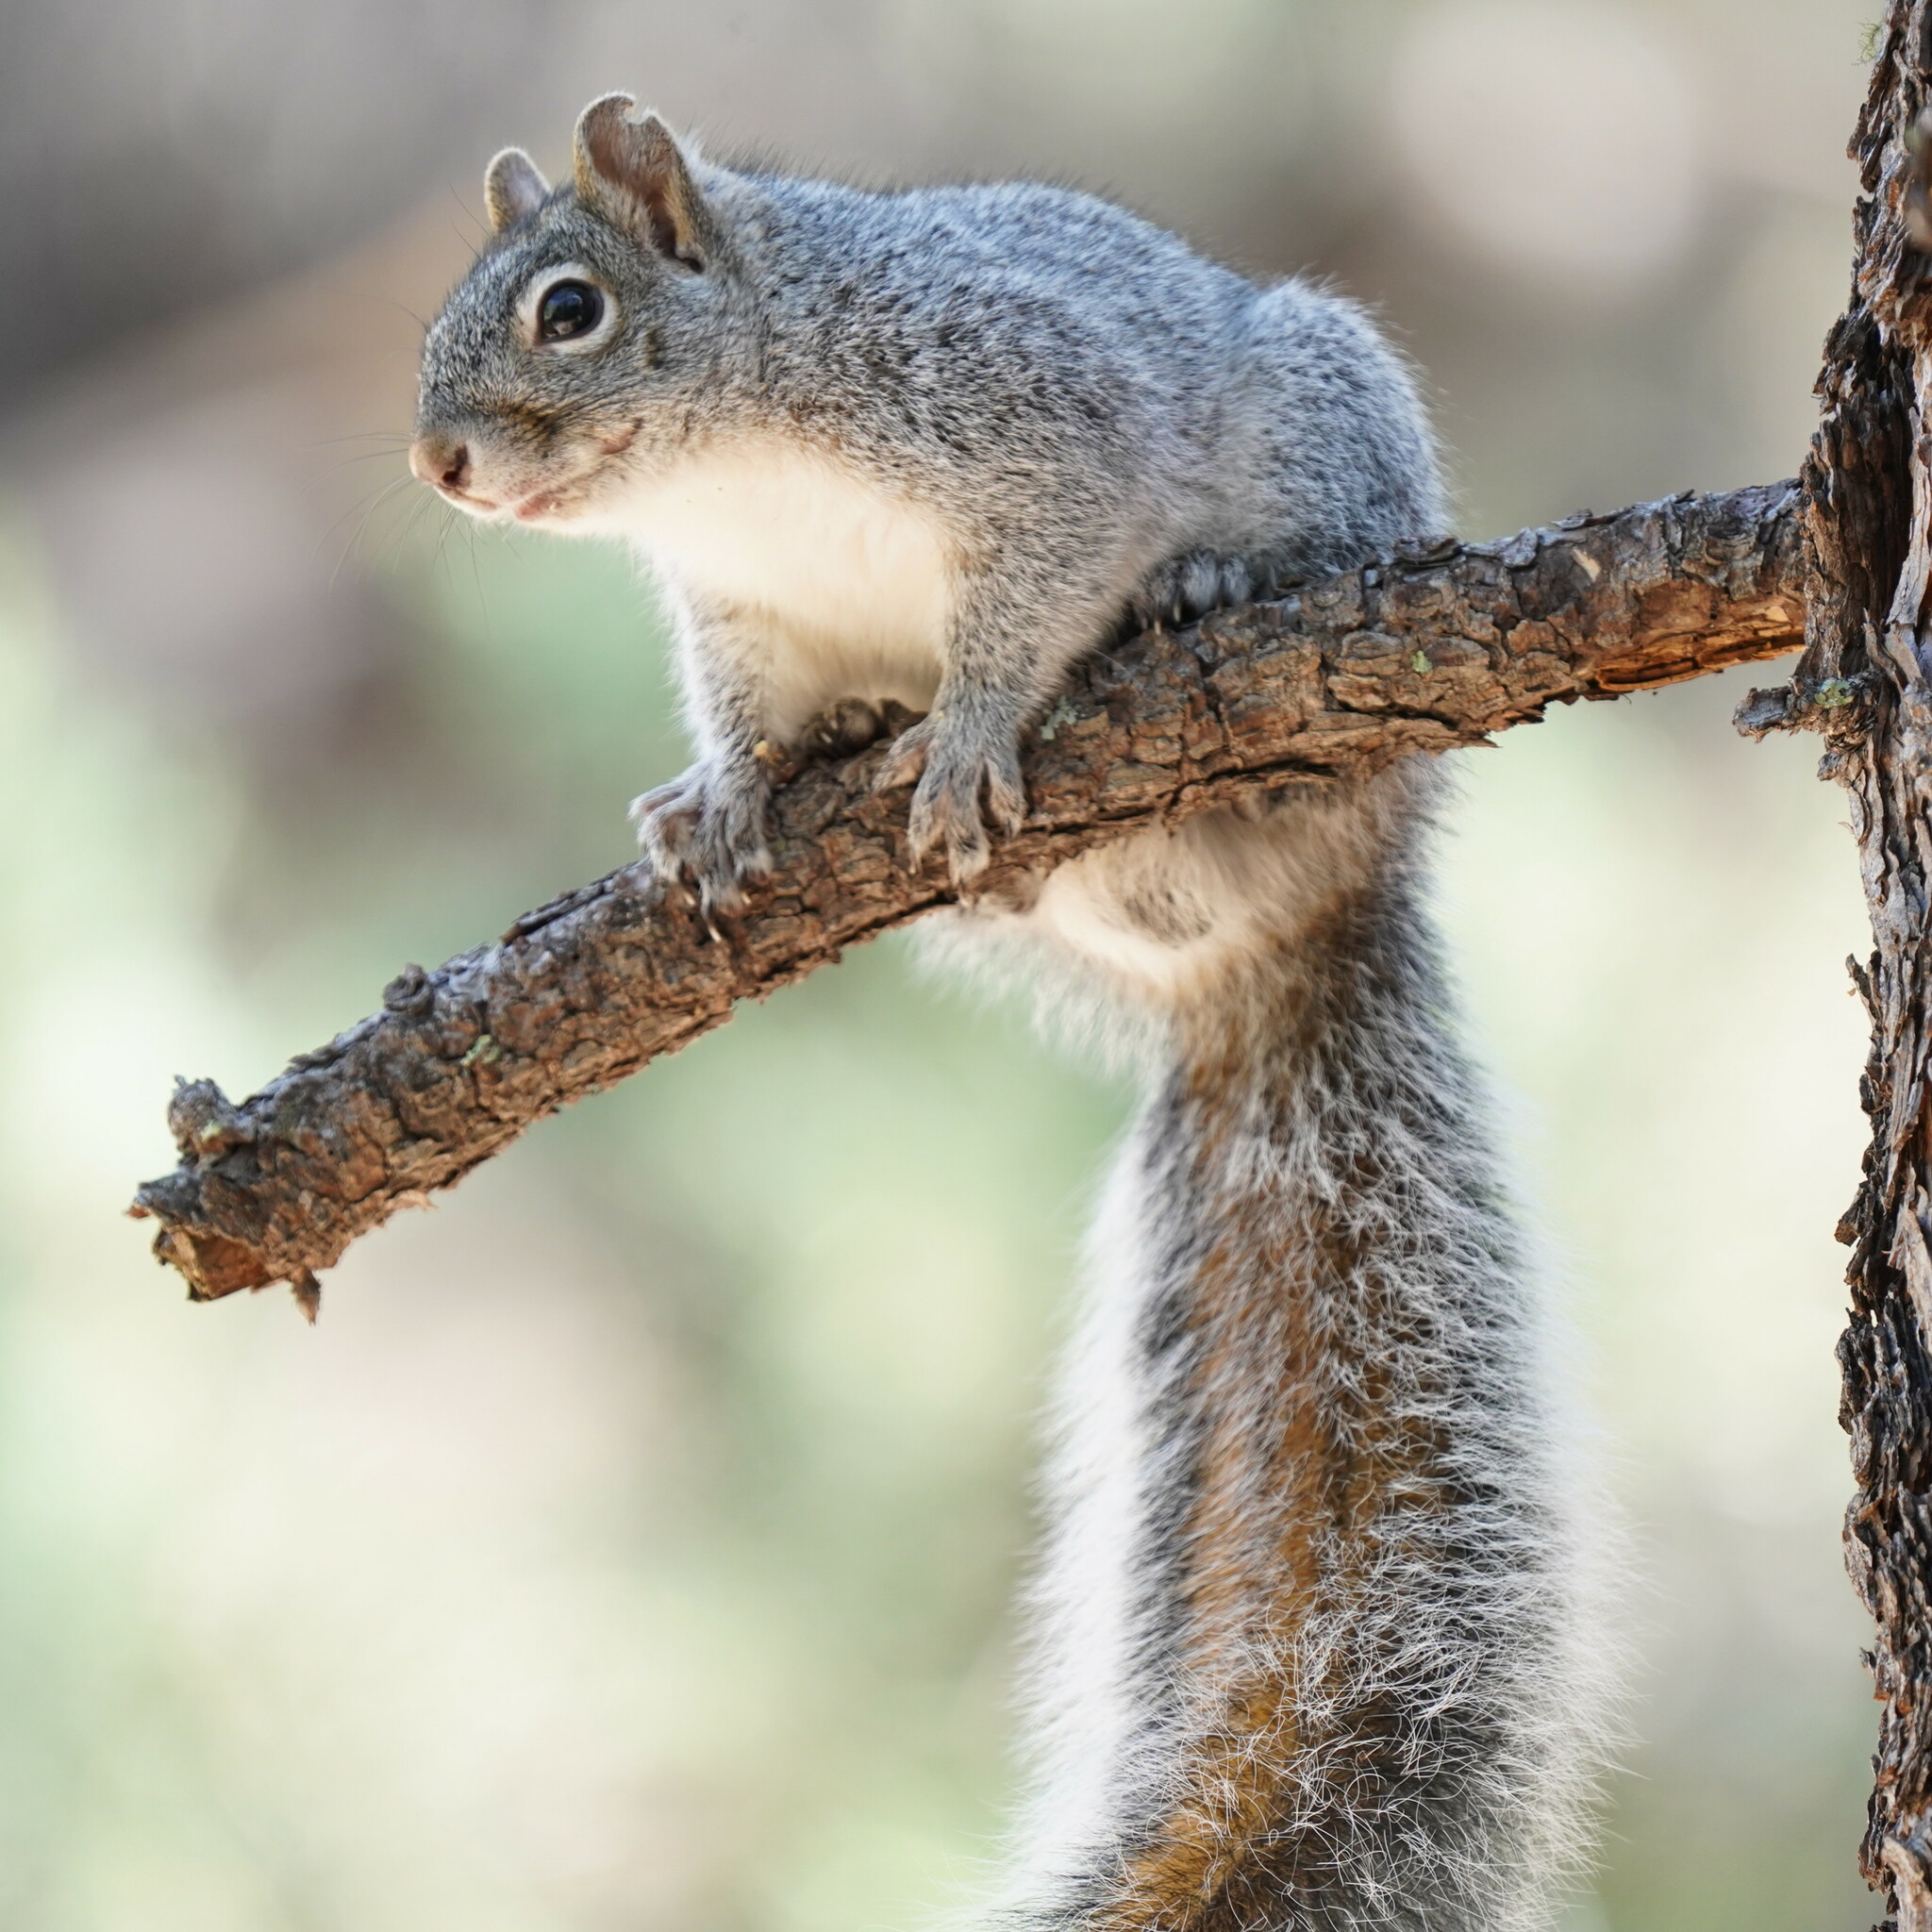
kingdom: Animalia
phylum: Chordata
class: Mammalia
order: Rodentia
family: Sciuridae
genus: Sciurus
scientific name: Sciurus arizonensis
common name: Arizona gray squirrel
